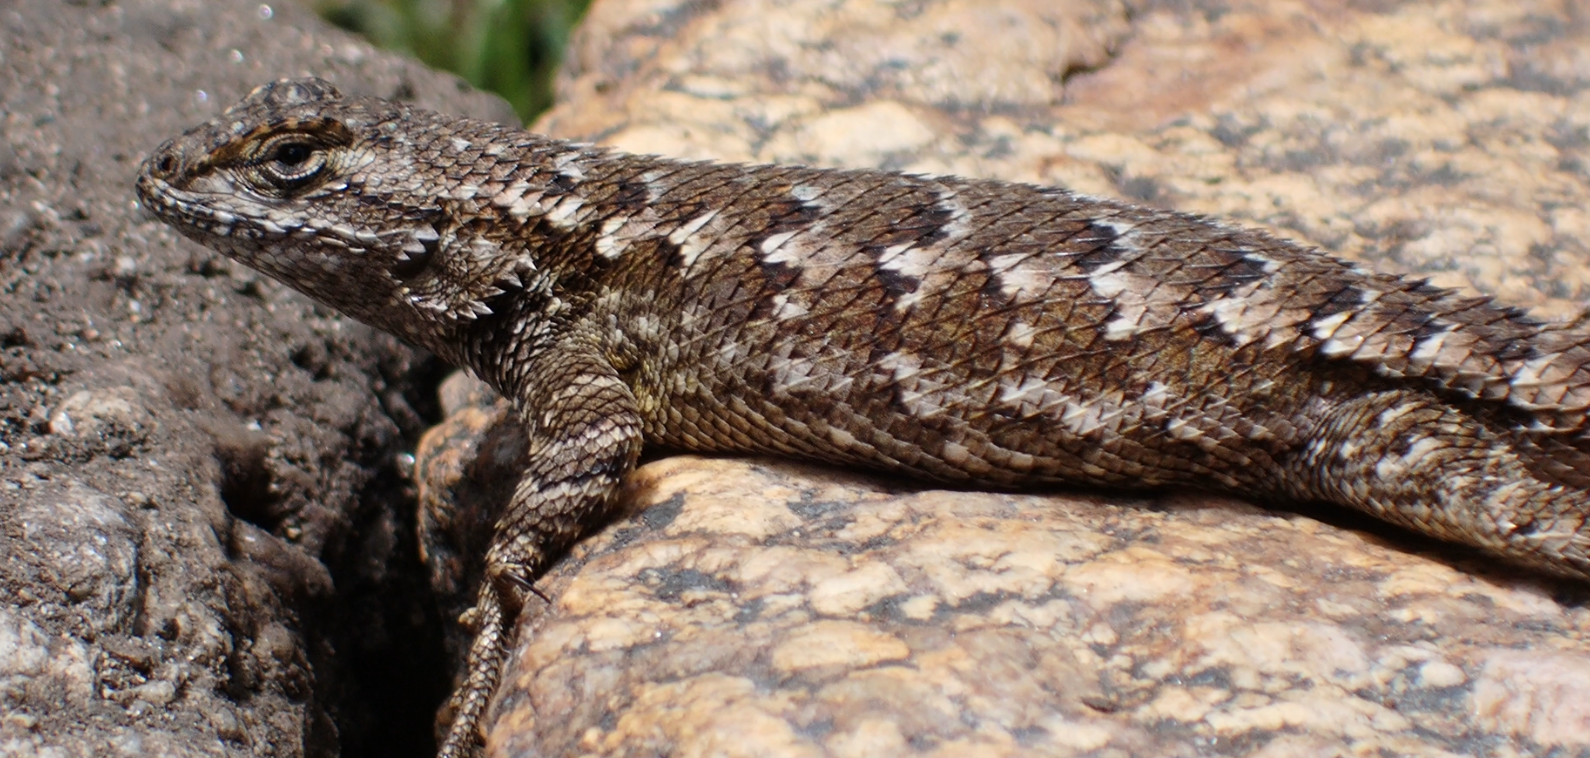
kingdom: Animalia
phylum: Chordata
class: Squamata
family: Phrynosomatidae
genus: Sceloporus
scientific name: Sceloporus occidentalis
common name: Western fence lizard
